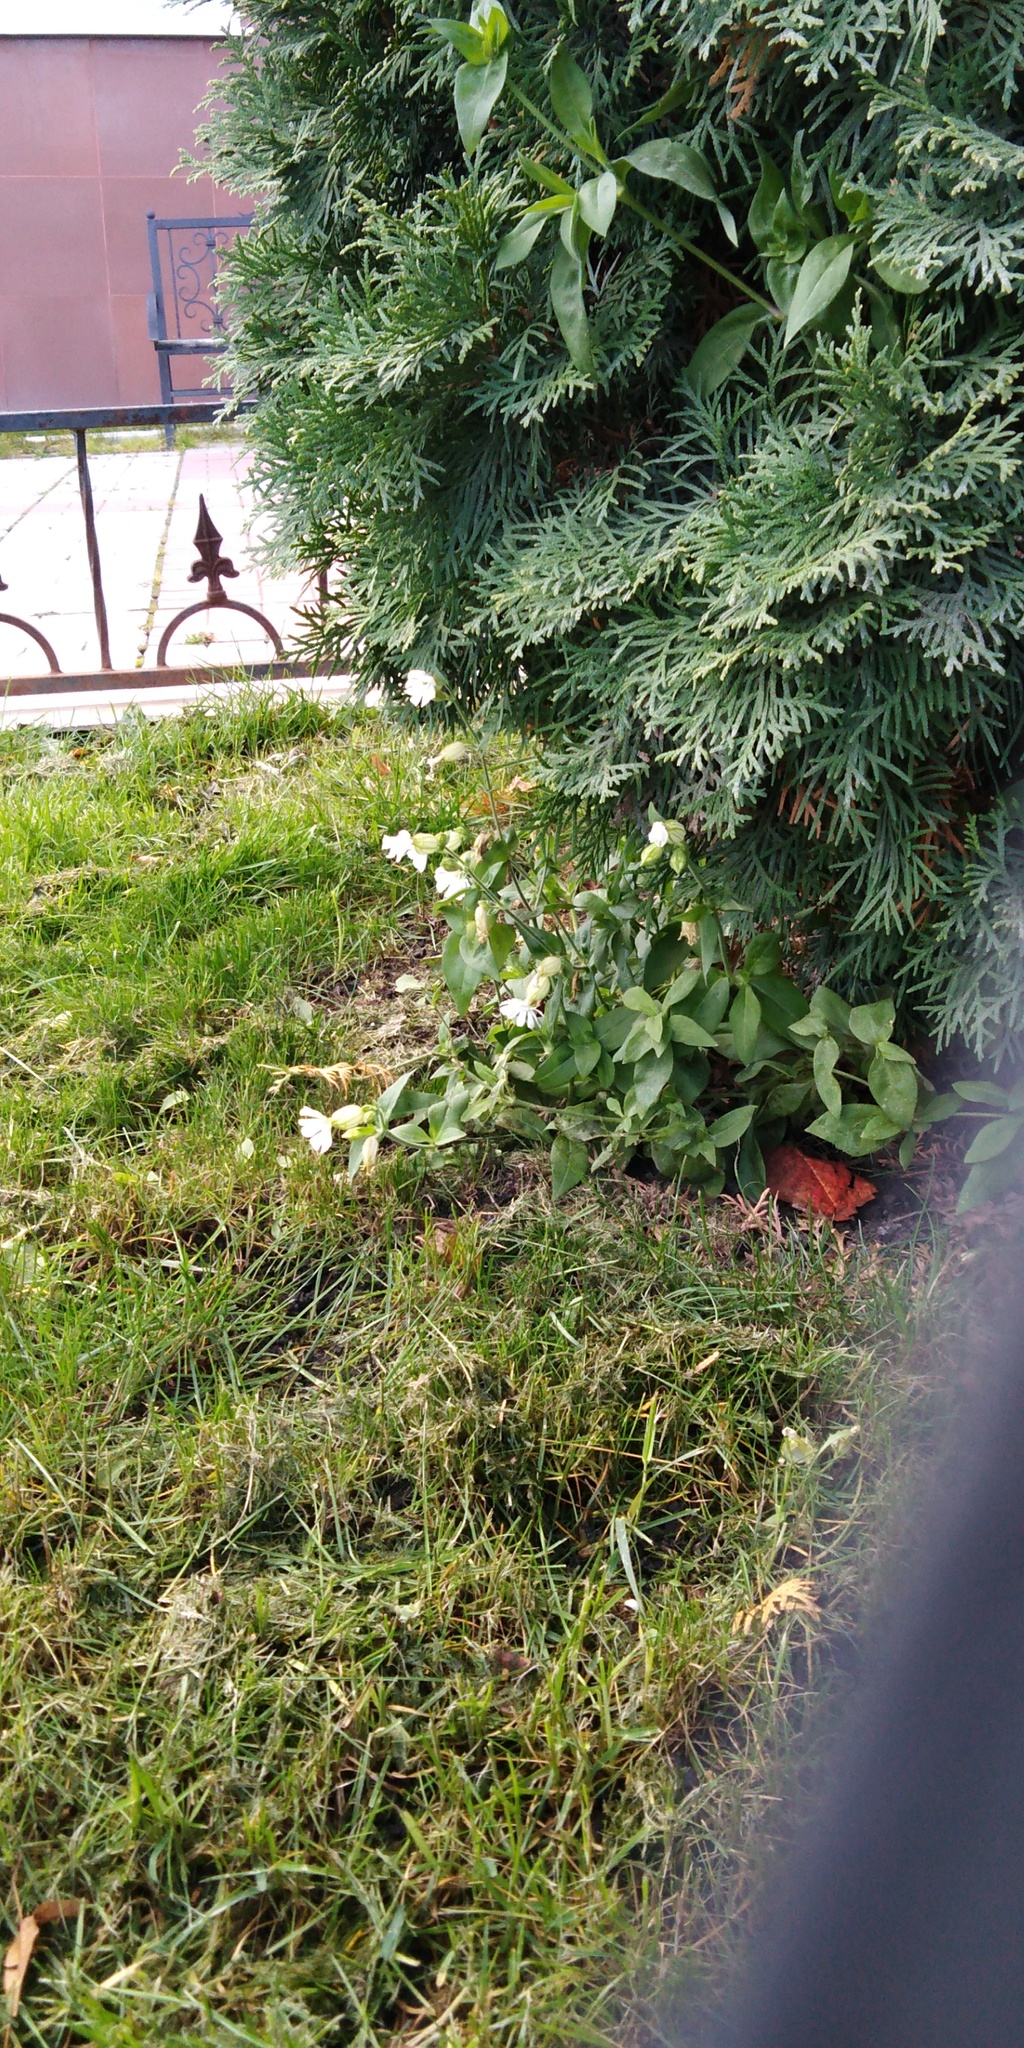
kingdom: Plantae
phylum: Tracheophyta
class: Magnoliopsida
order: Caryophyllales
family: Caryophyllaceae
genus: Silene
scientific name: Silene latifolia
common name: White campion
